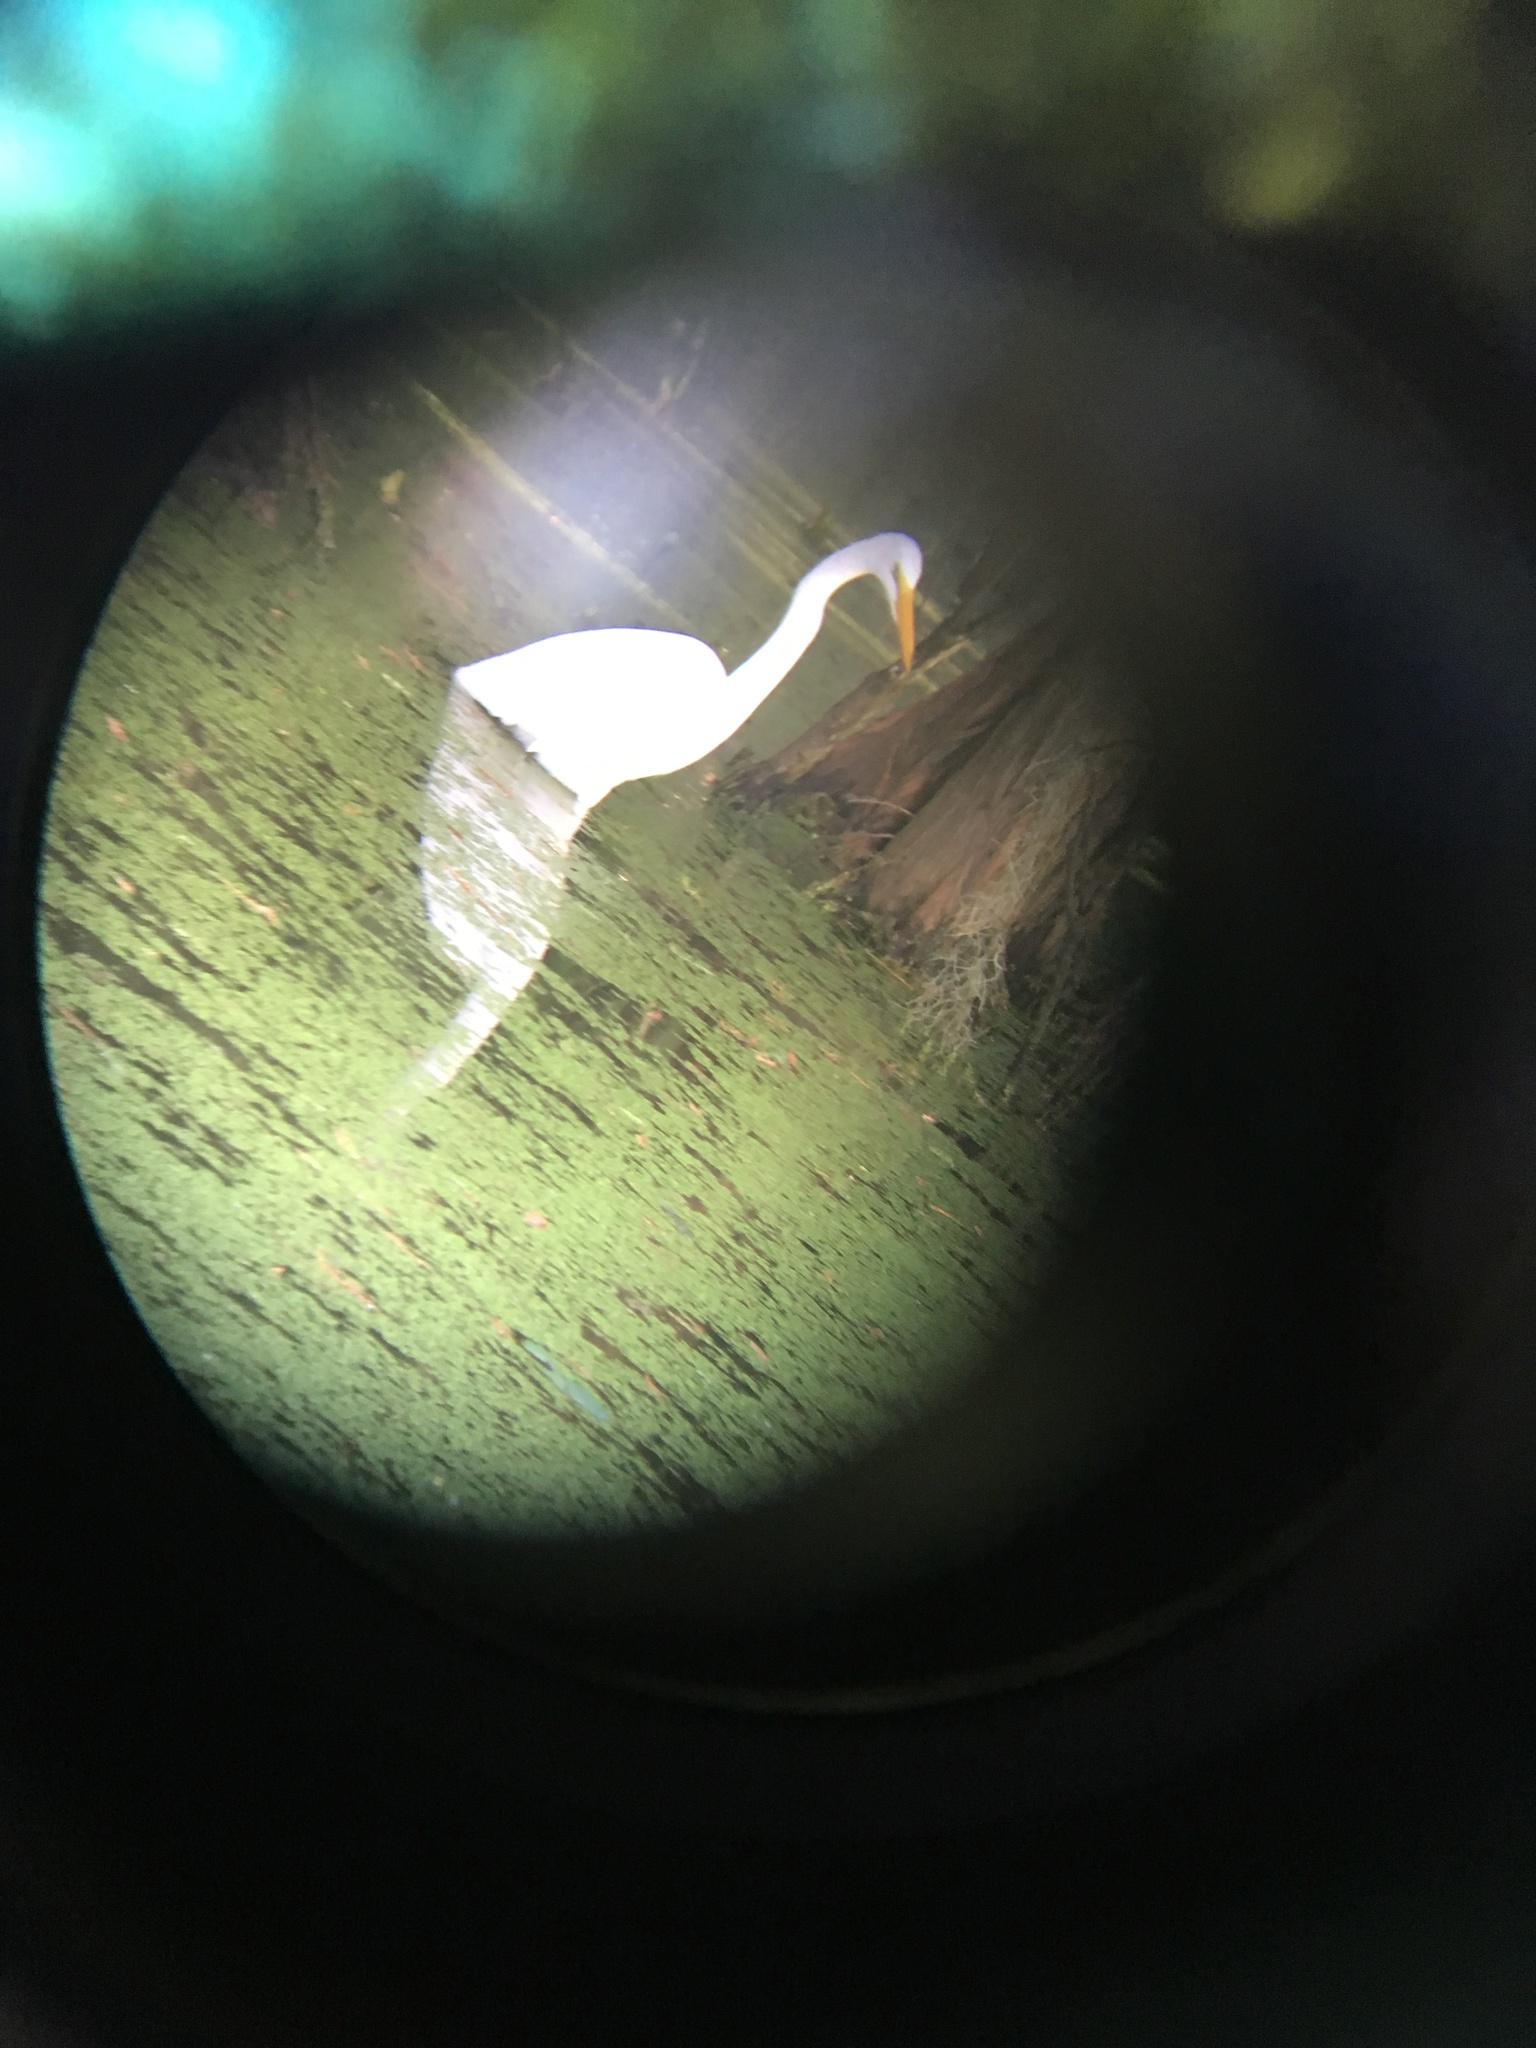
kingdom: Animalia
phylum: Chordata
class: Aves
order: Pelecaniformes
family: Ardeidae
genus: Ardea
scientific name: Ardea alba
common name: Great egret
